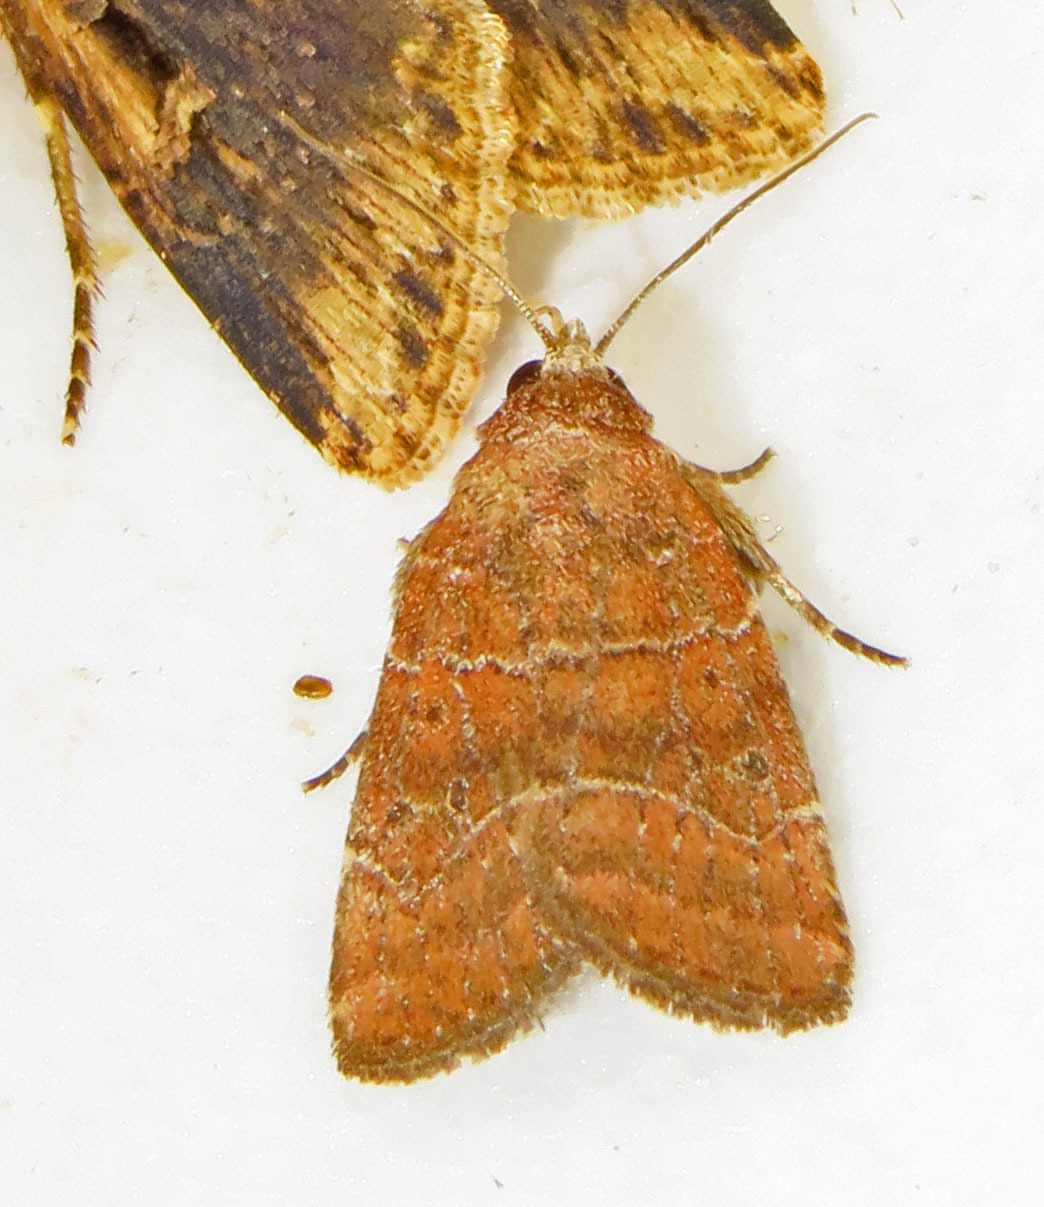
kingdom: Animalia
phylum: Arthropoda
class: Insecta
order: Lepidoptera
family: Noctuidae
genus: Elaphria
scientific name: Elaphria grata
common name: Grateful midget moth
